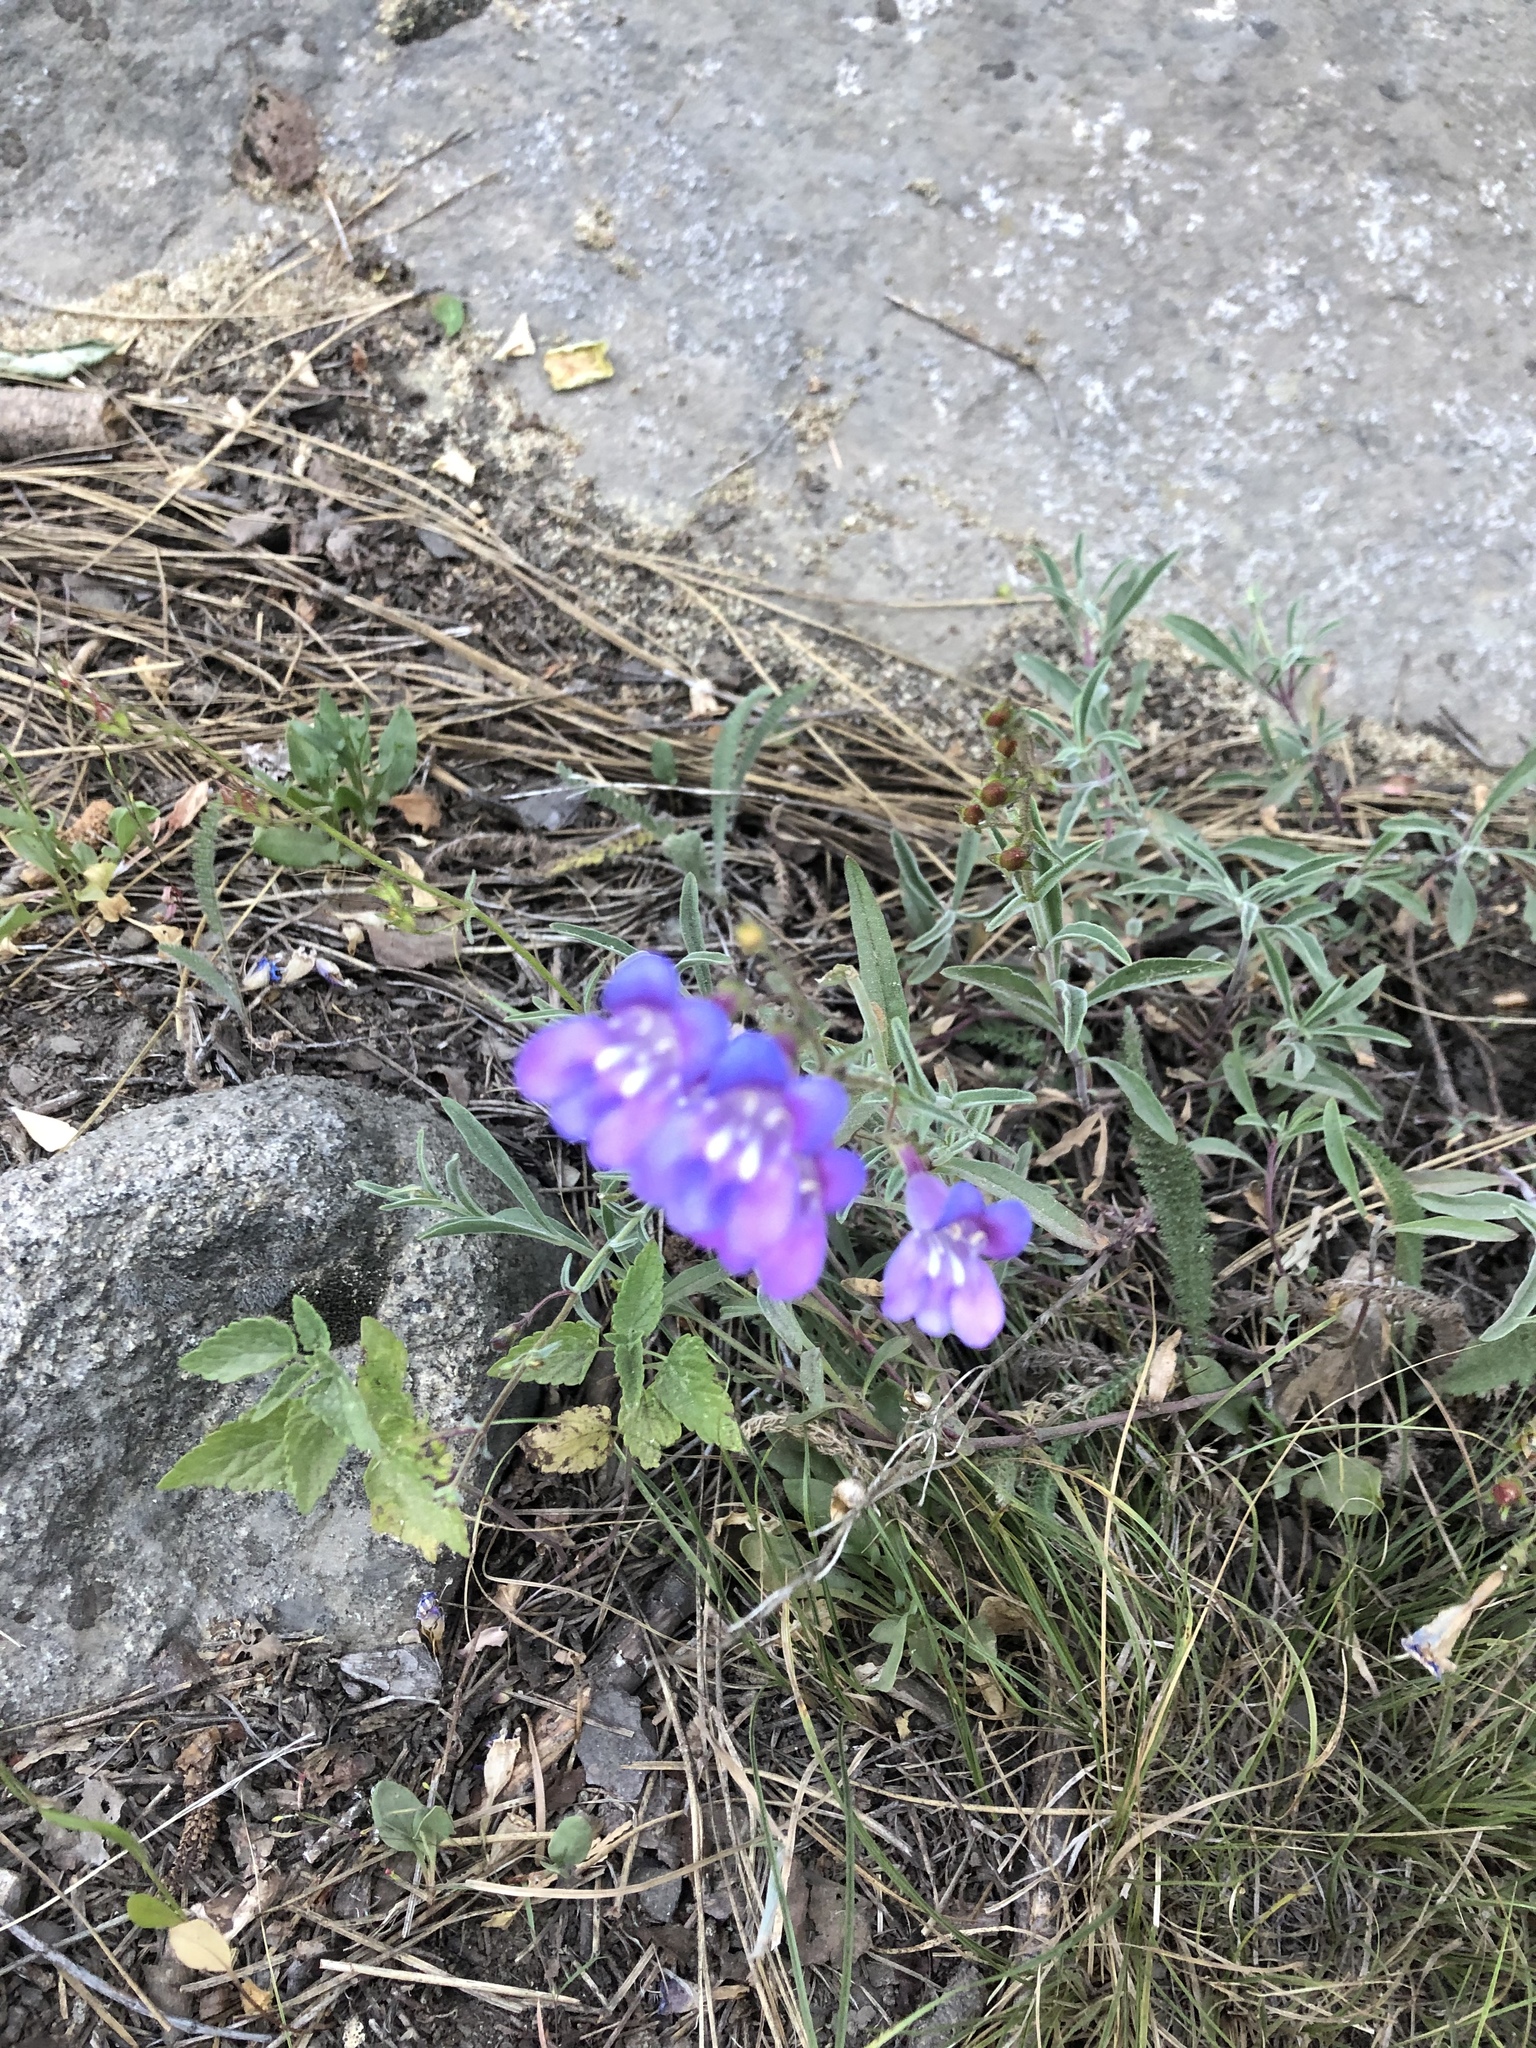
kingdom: Plantae
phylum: Tracheophyta
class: Magnoliopsida
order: Lamiales
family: Plantaginaceae
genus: Penstemon
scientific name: Penstemon laetus
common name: Gay penstemon
